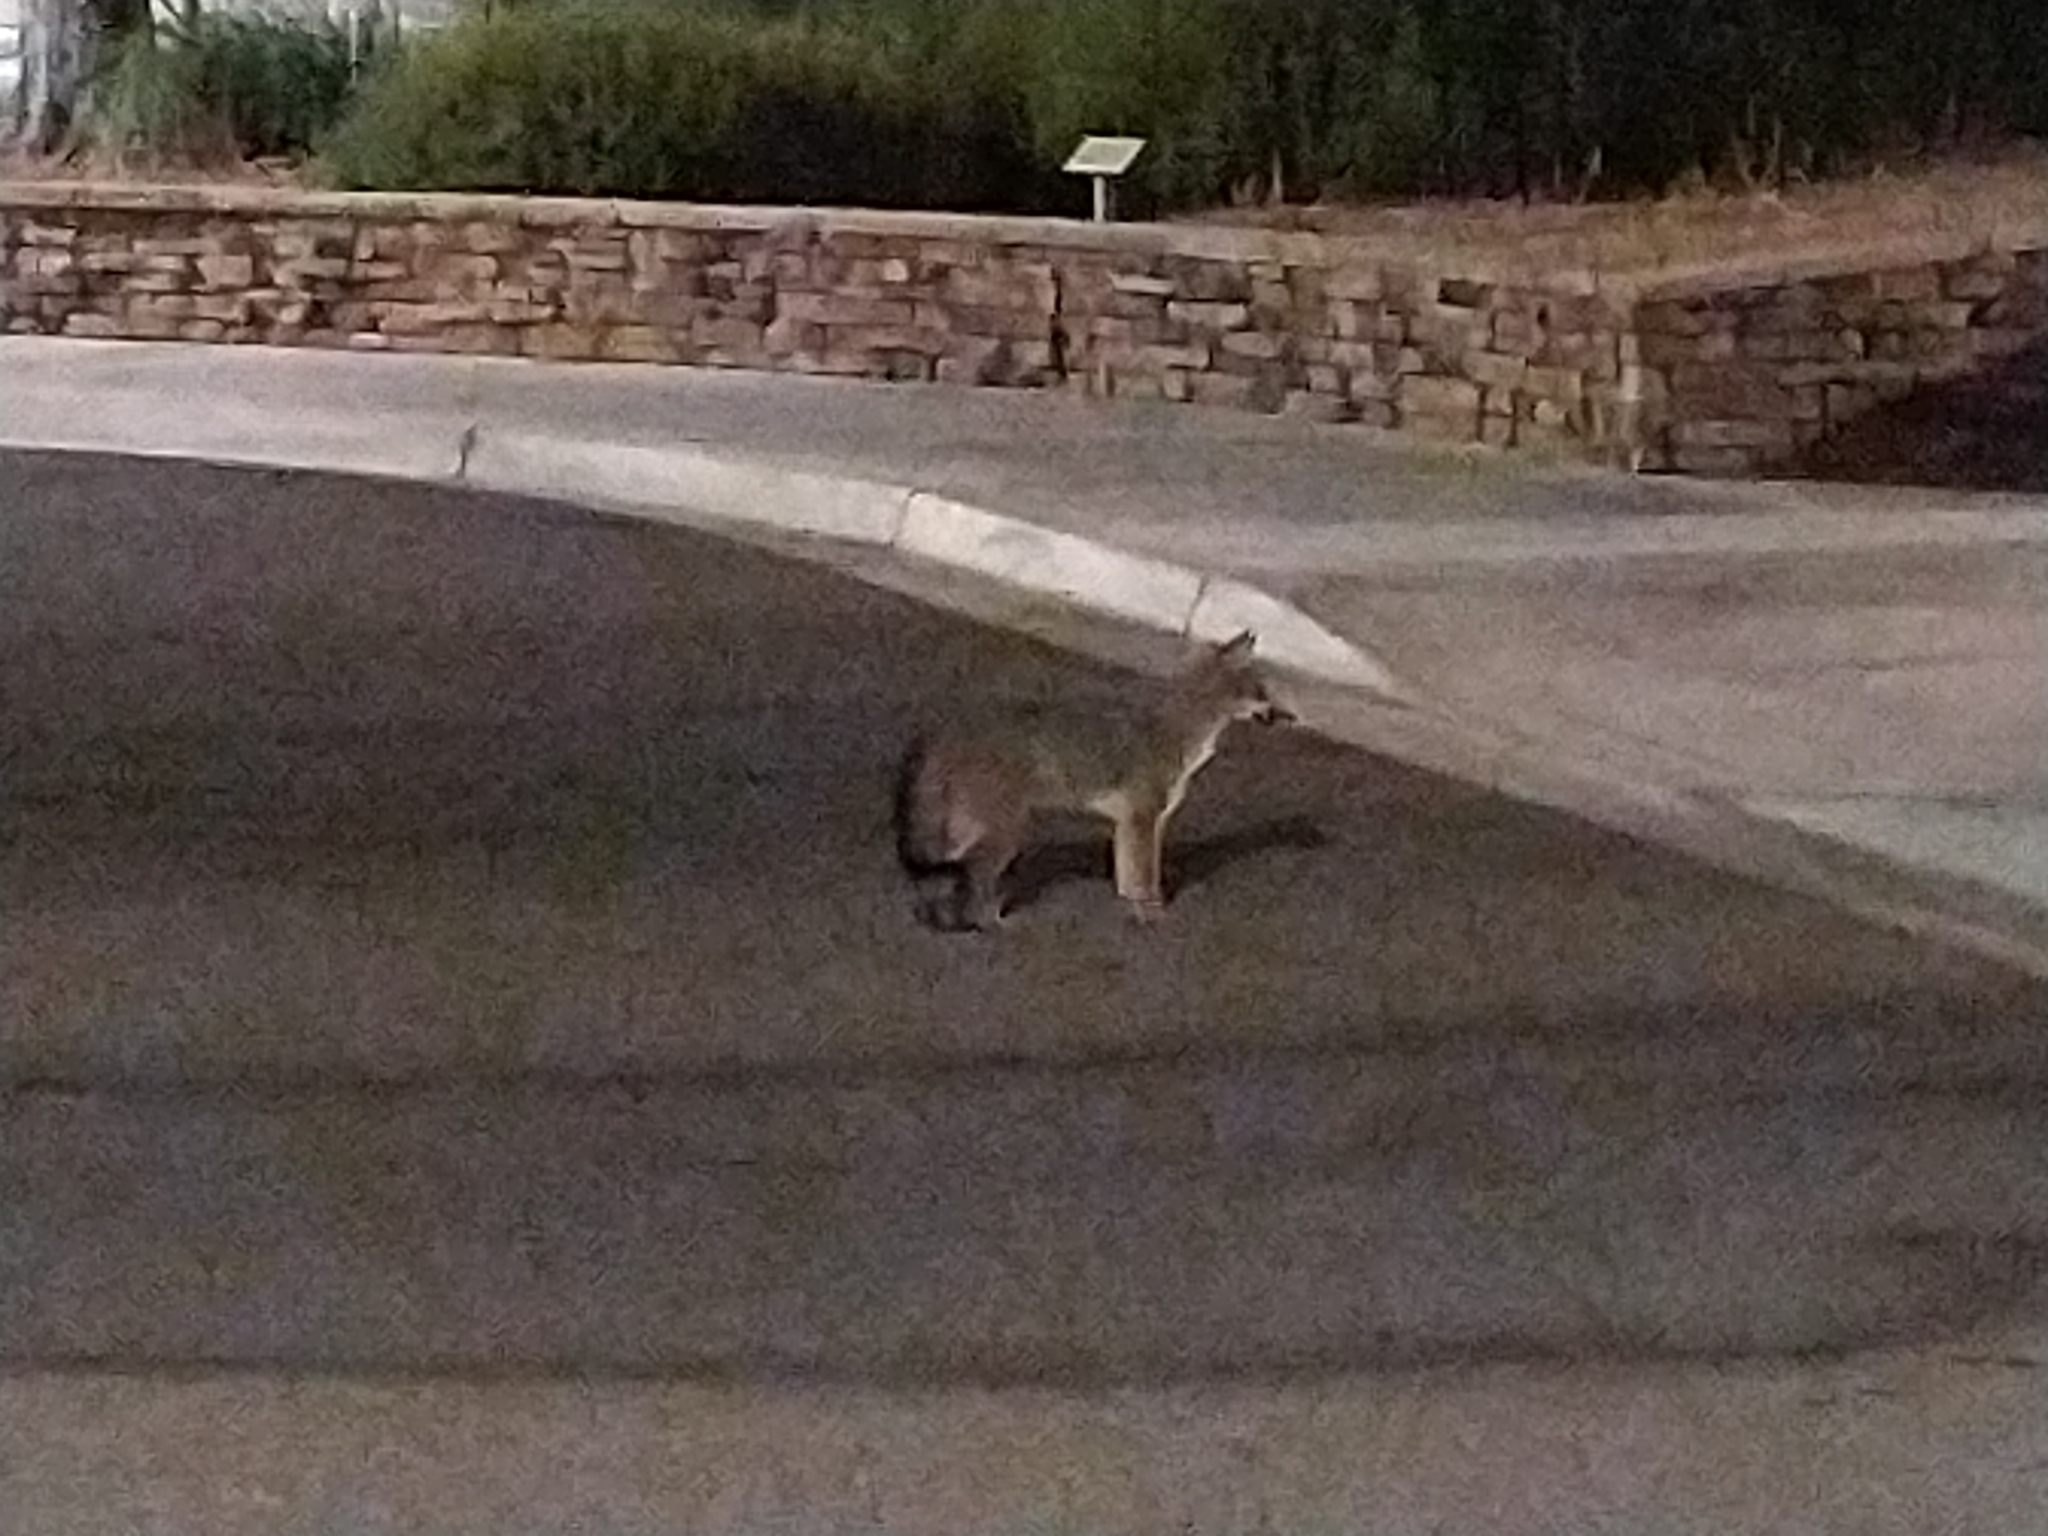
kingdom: Animalia
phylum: Chordata
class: Mammalia
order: Carnivora
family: Canidae
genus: Urocyon
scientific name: Urocyon cinereoargenteus
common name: Gray fox
